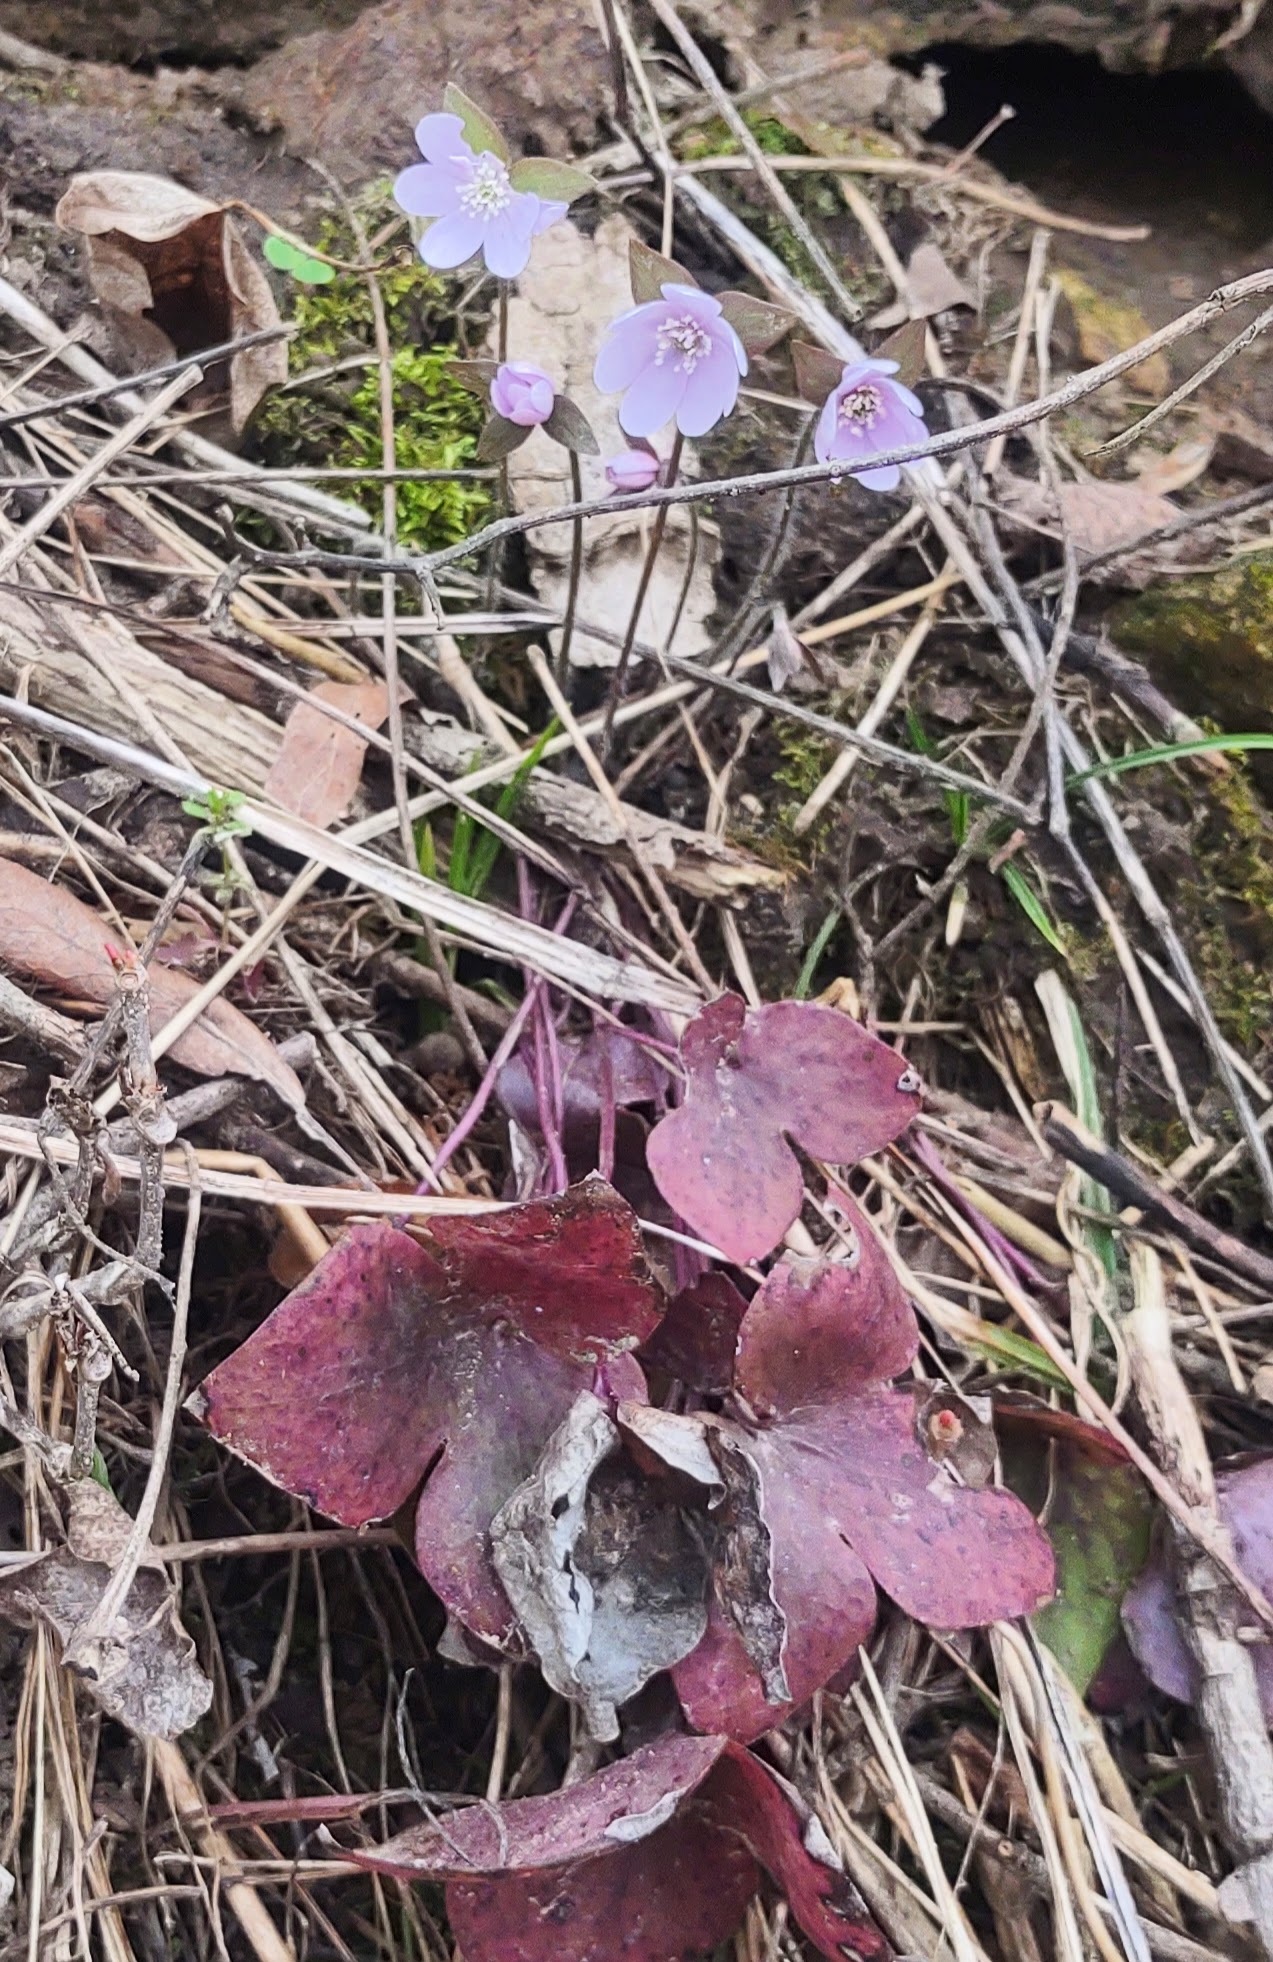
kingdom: Plantae
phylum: Tracheophyta
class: Magnoliopsida
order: Ranunculales
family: Ranunculaceae
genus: Hepatica
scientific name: Hepatica acutiloba
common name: Sharp-lobed hepatica
